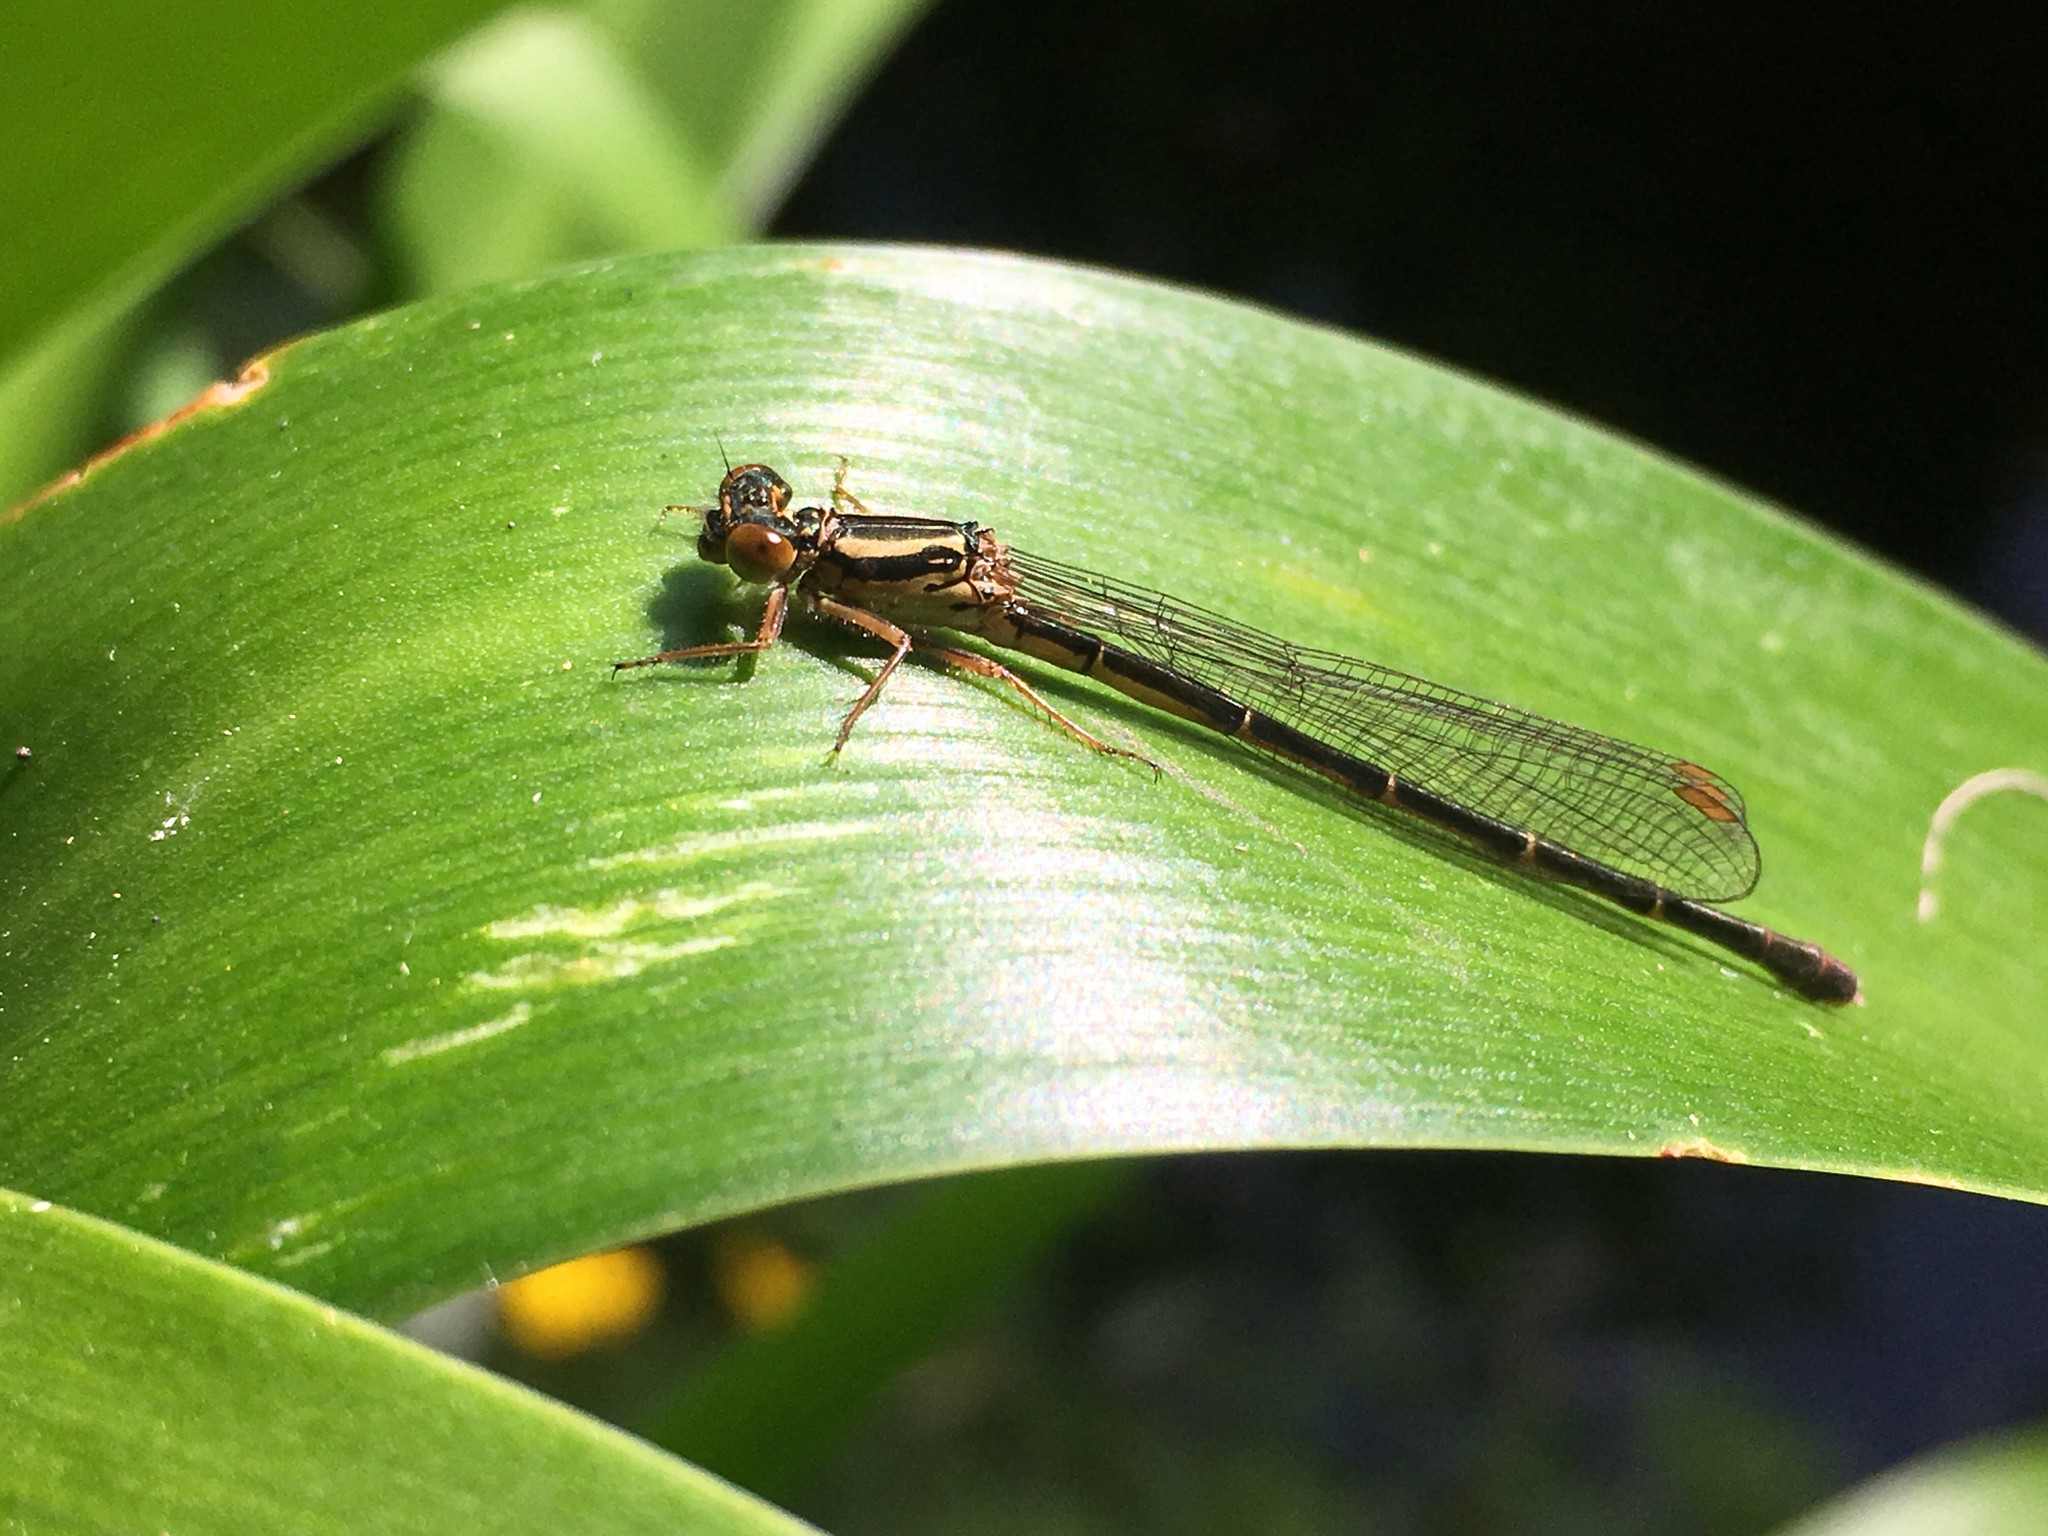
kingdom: Animalia
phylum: Arthropoda
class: Insecta
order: Odonata
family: Coenagrionidae
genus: Xanthocnemis
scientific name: Xanthocnemis zealandica
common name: Common redcoat damselfly
